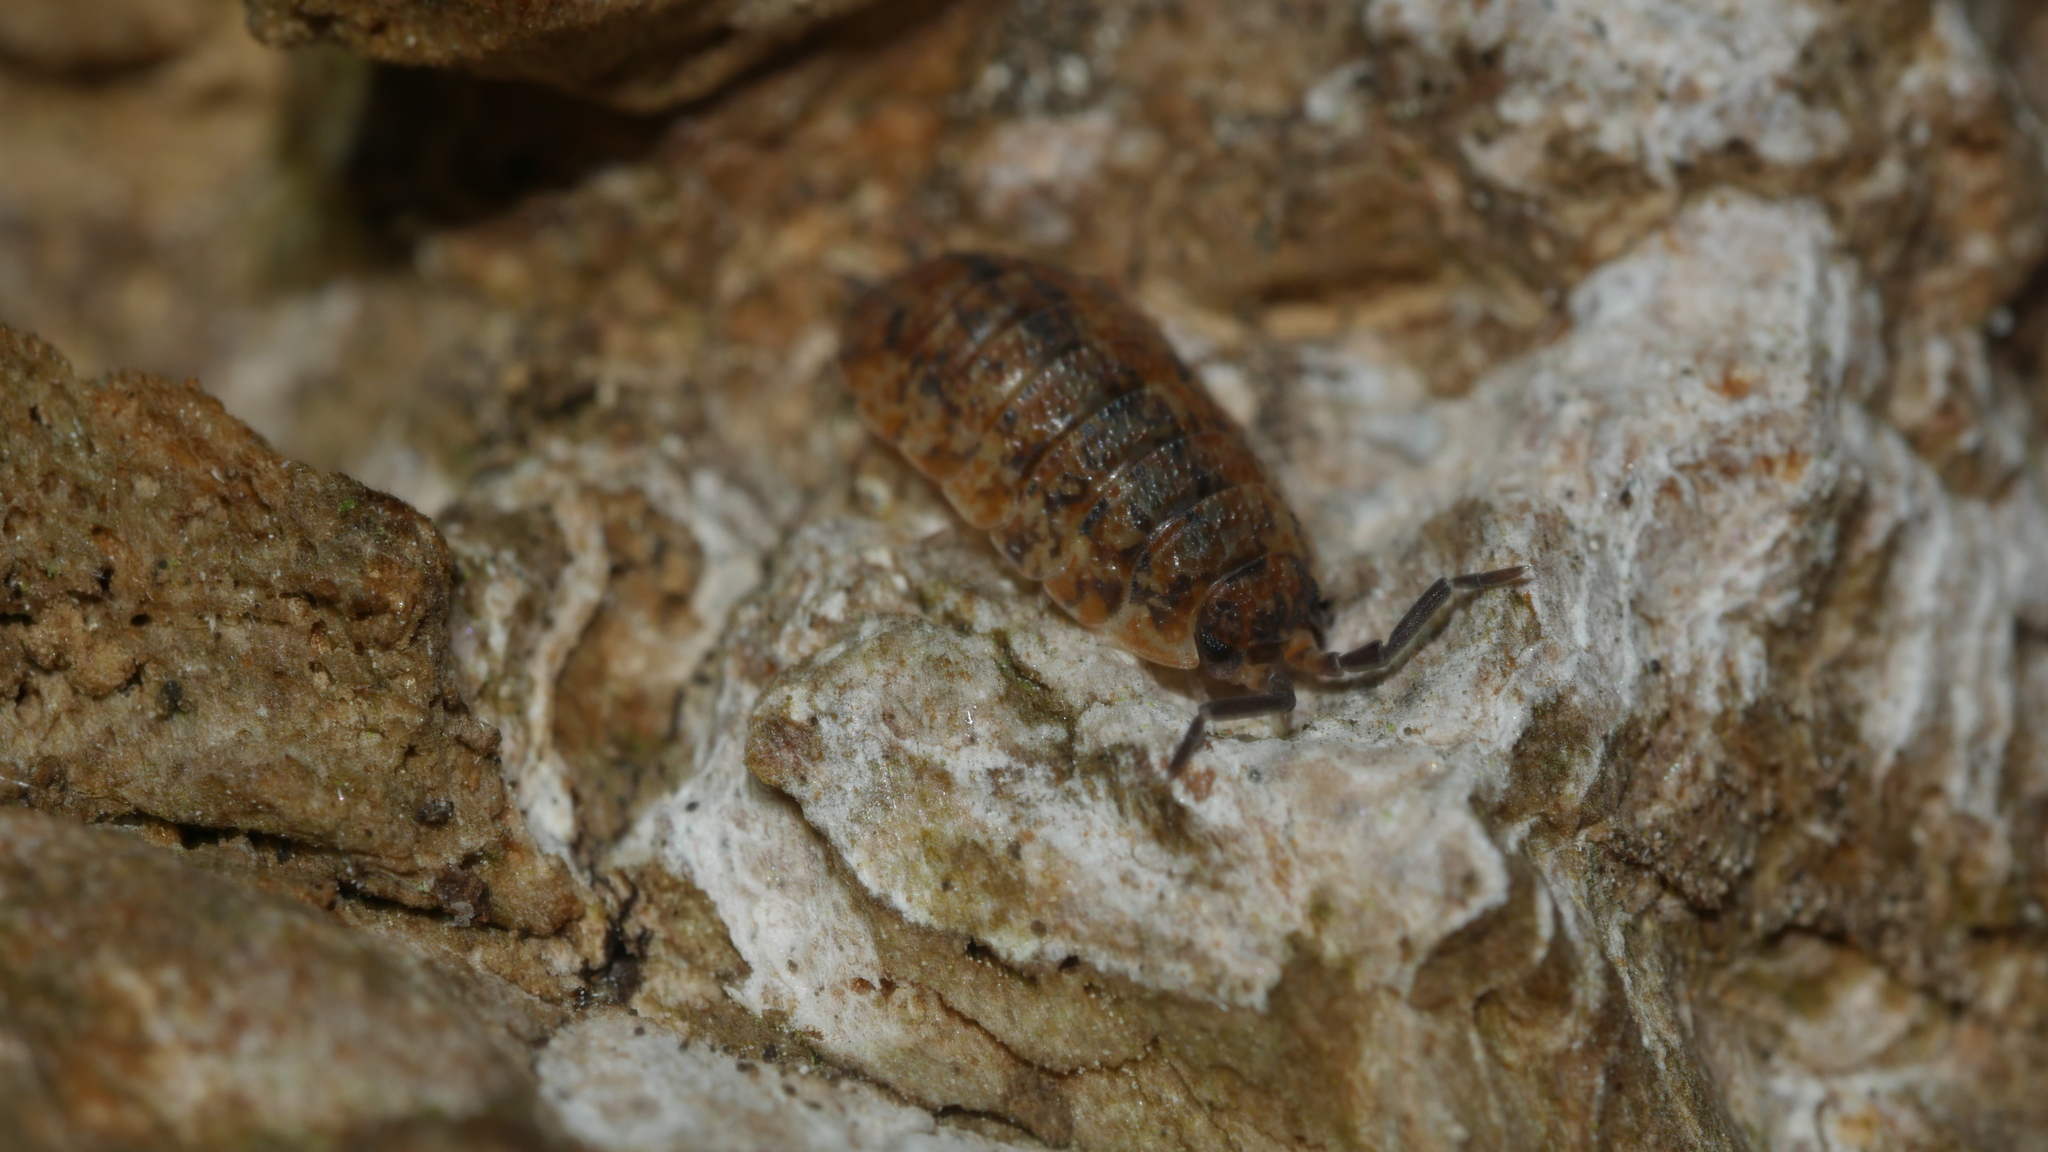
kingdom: Animalia
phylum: Arthropoda
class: Malacostraca
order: Isopoda
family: Porcellionidae
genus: Porcellio
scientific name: Porcellio scaber
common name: Common rough woodlouse
